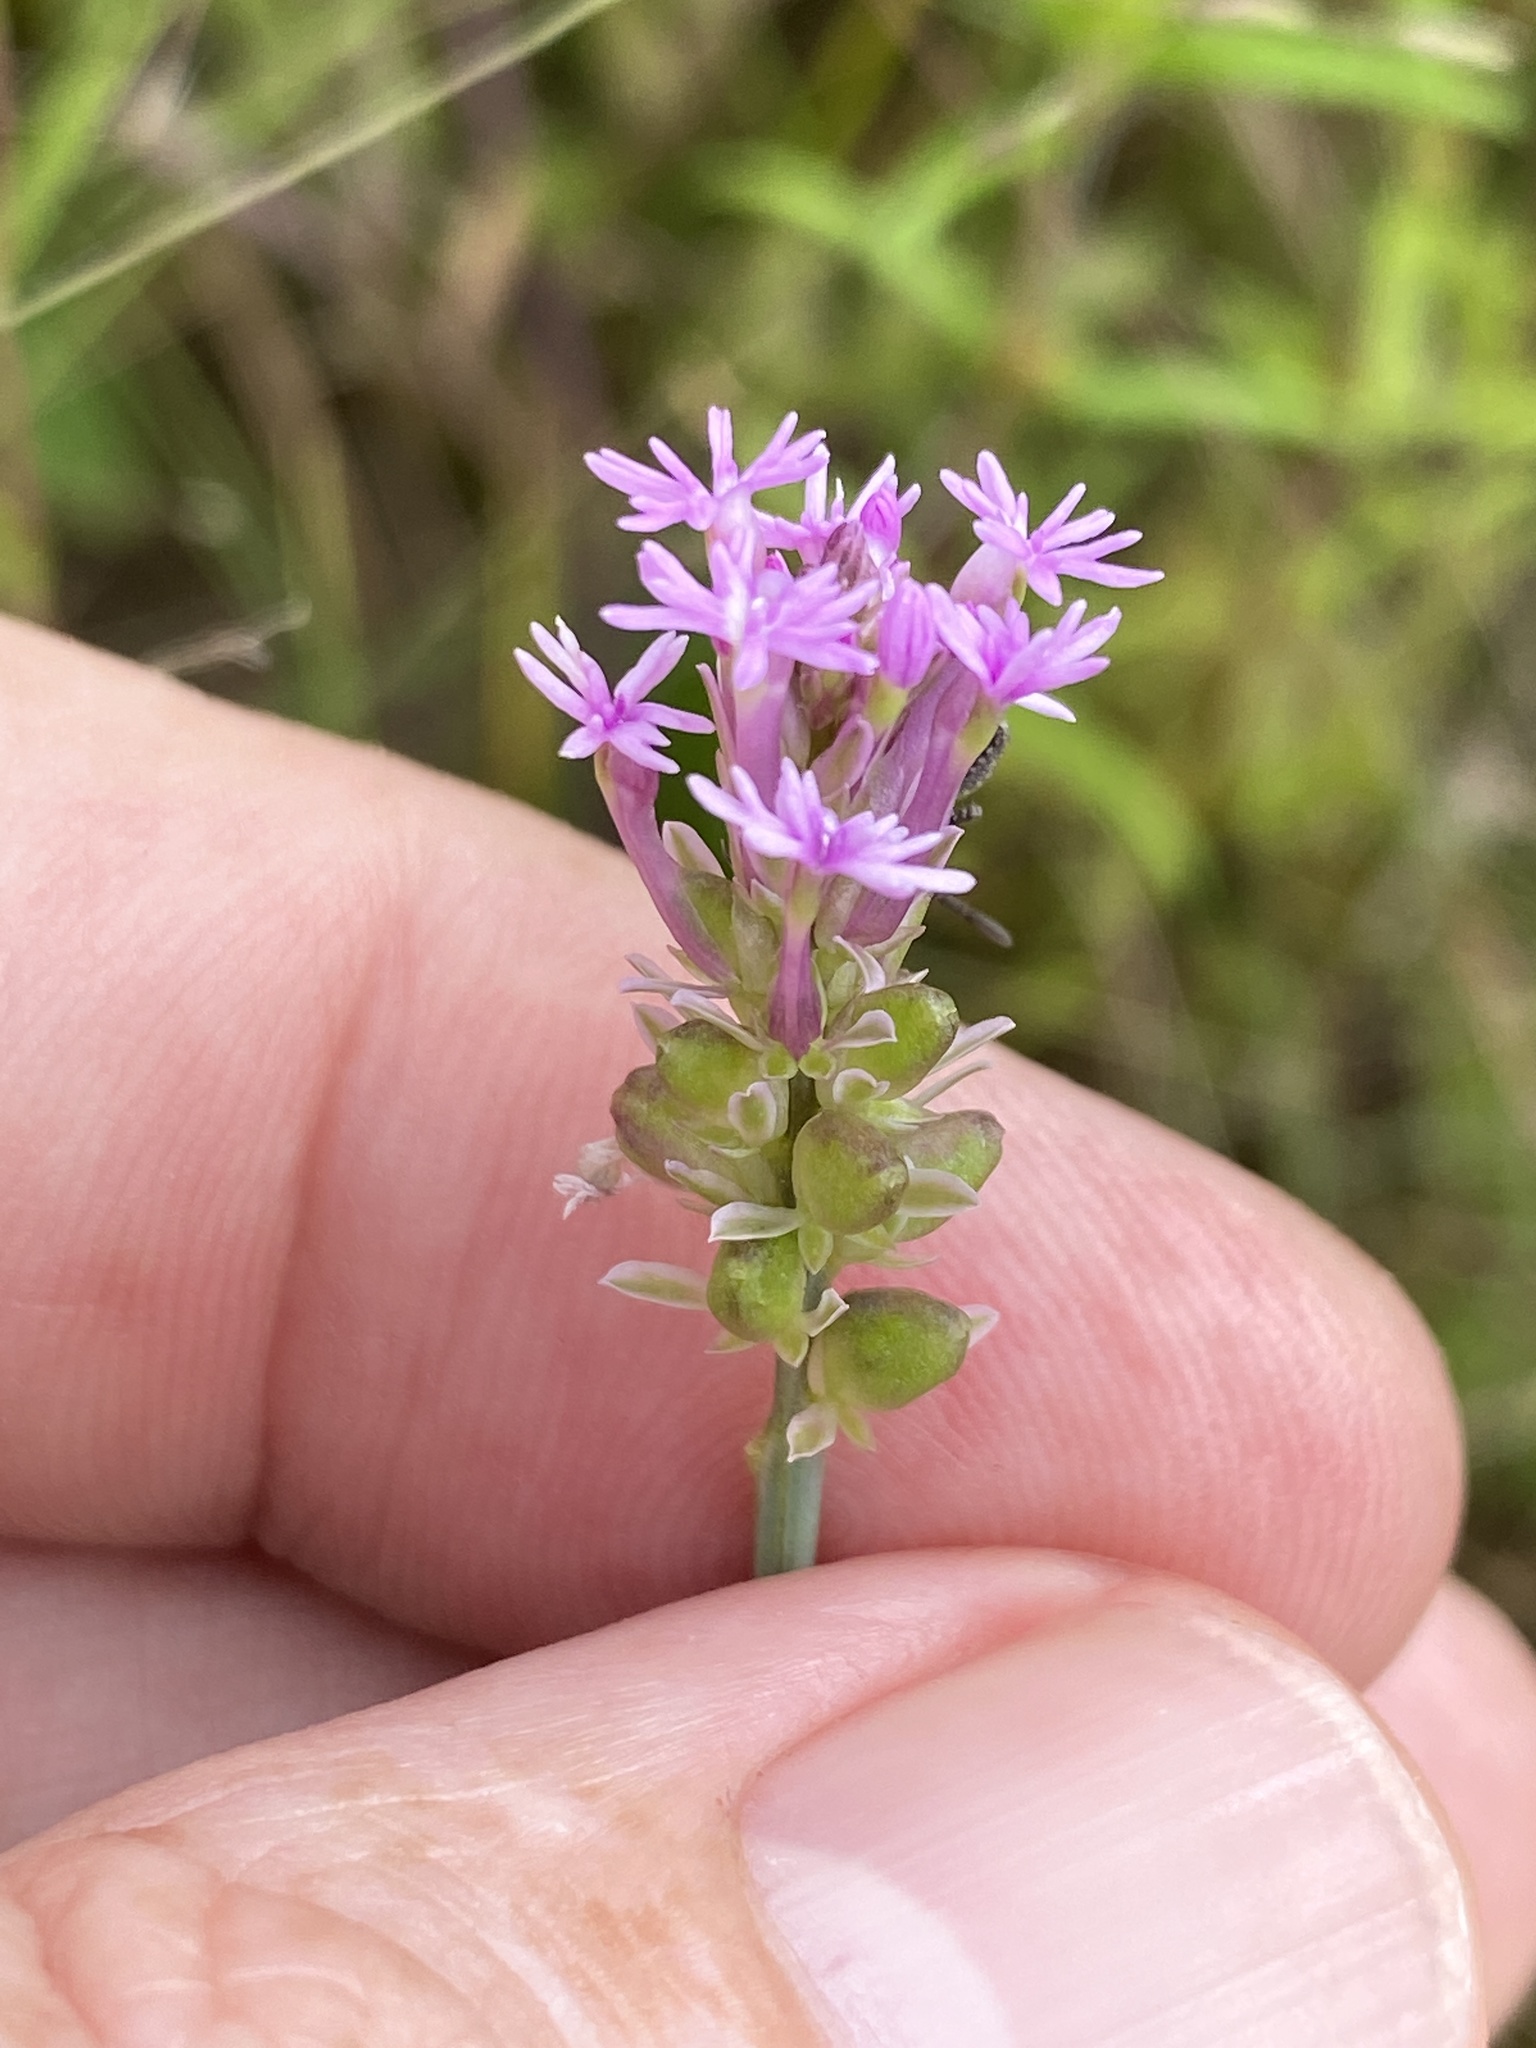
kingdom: Plantae
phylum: Tracheophyta
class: Magnoliopsida
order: Fabales
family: Polygalaceae
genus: Polygala
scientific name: Polygala incarnata
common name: Pink milkwort
